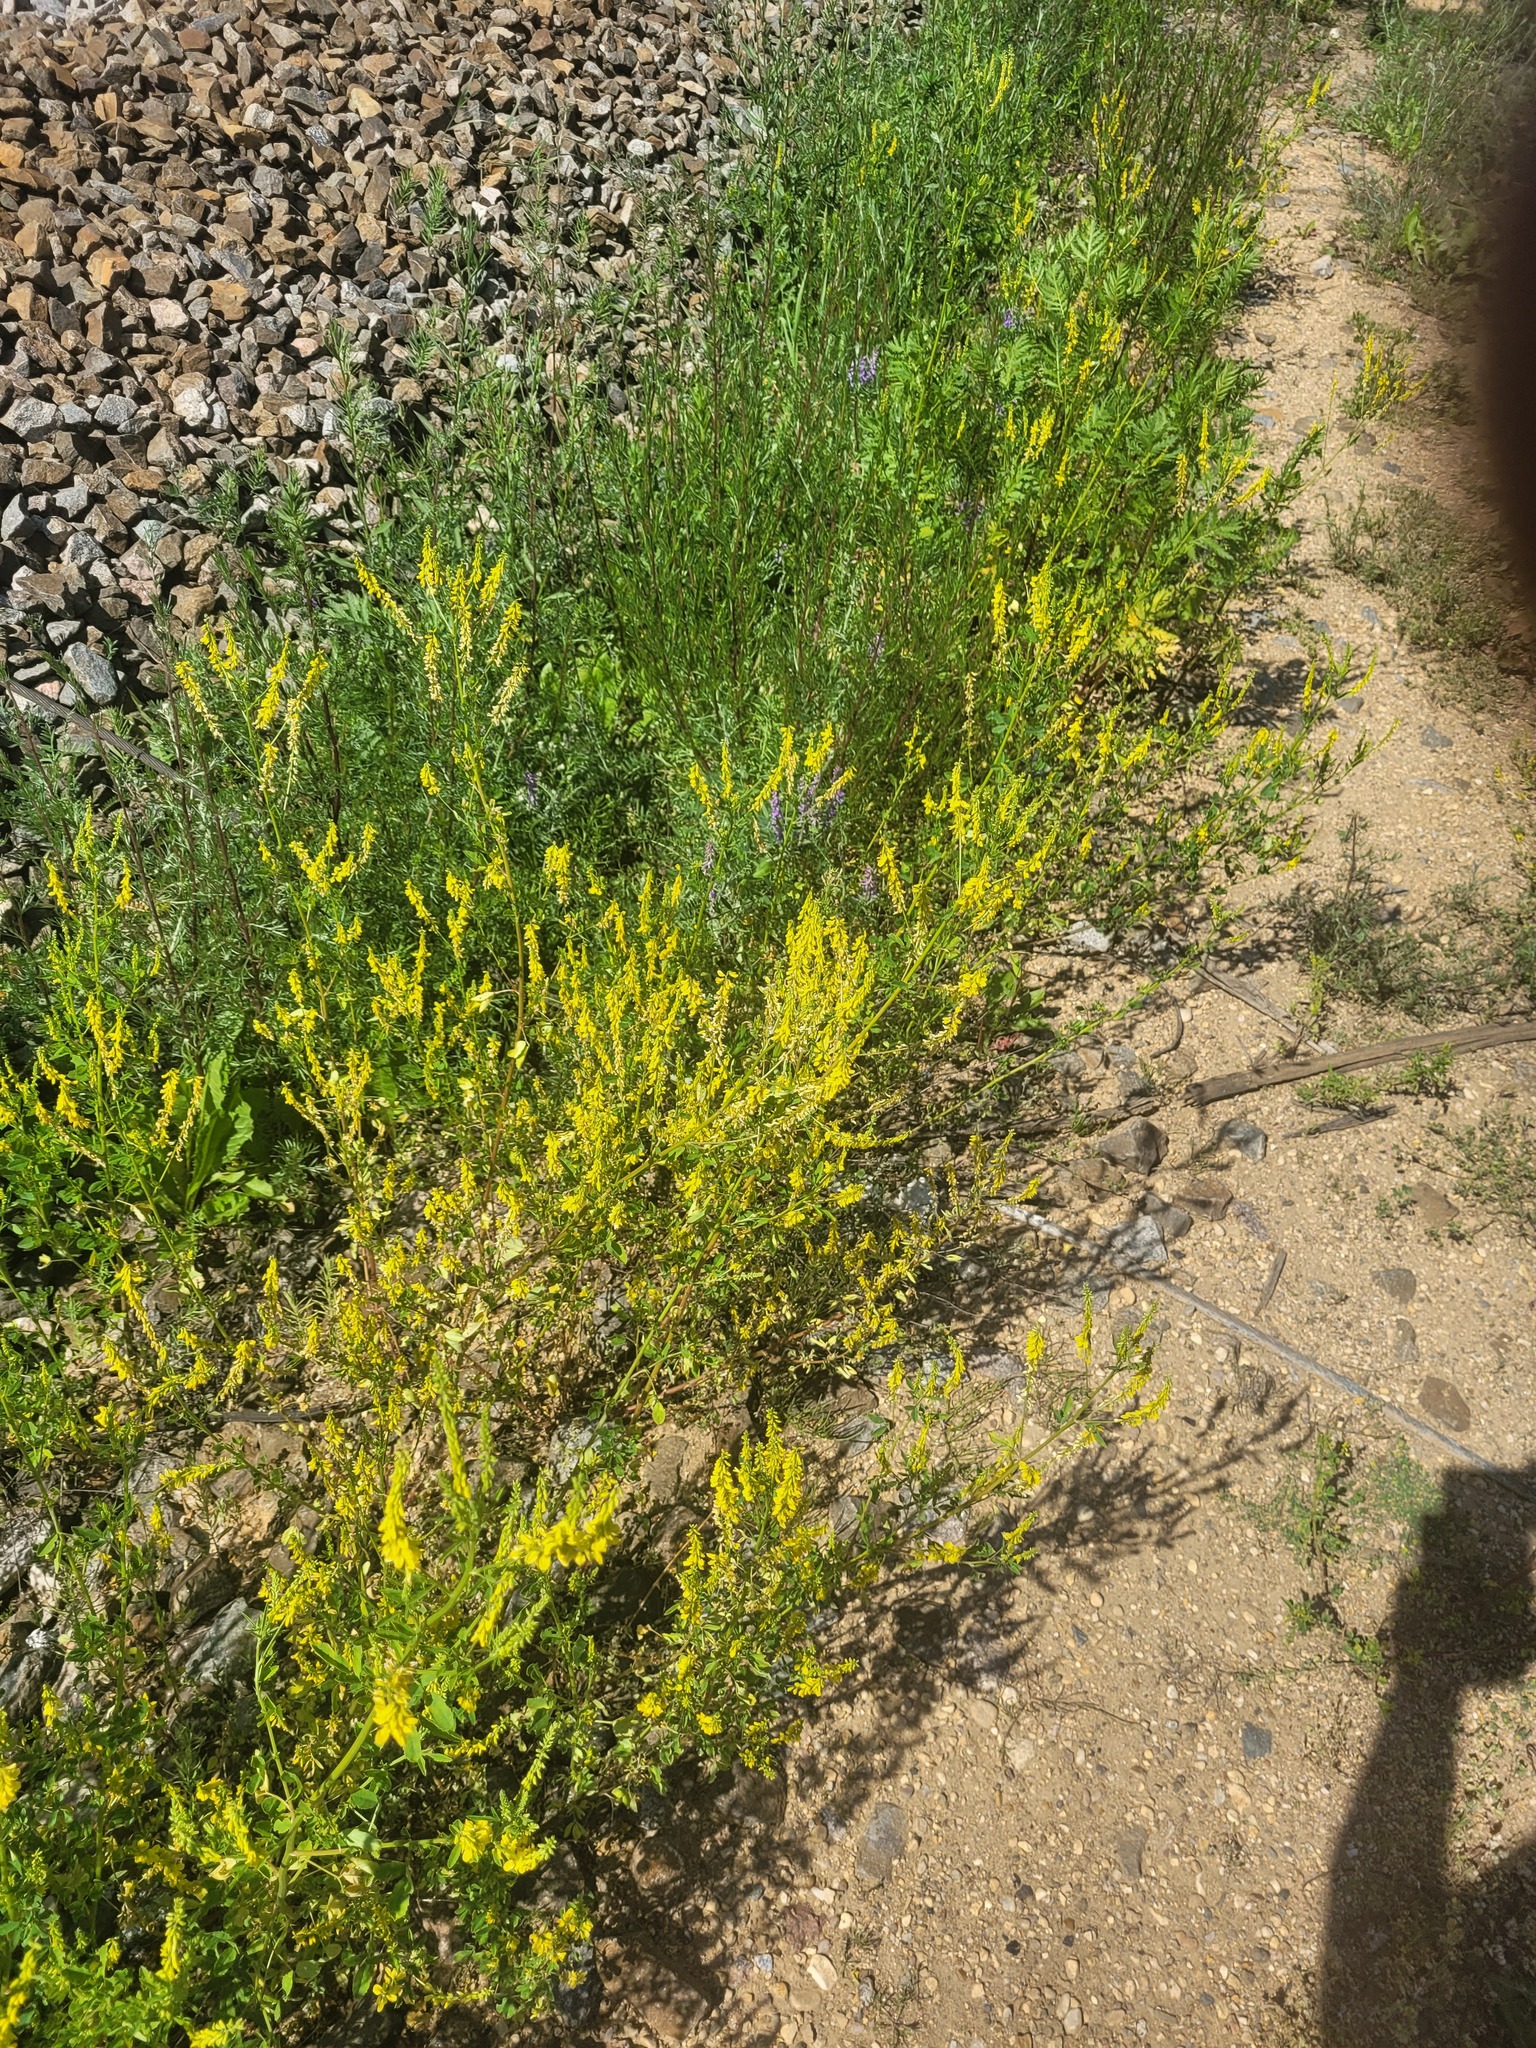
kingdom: Plantae
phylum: Tracheophyta
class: Magnoliopsida
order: Fabales
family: Fabaceae
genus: Melilotus
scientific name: Melilotus officinalis
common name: Sweetclover
